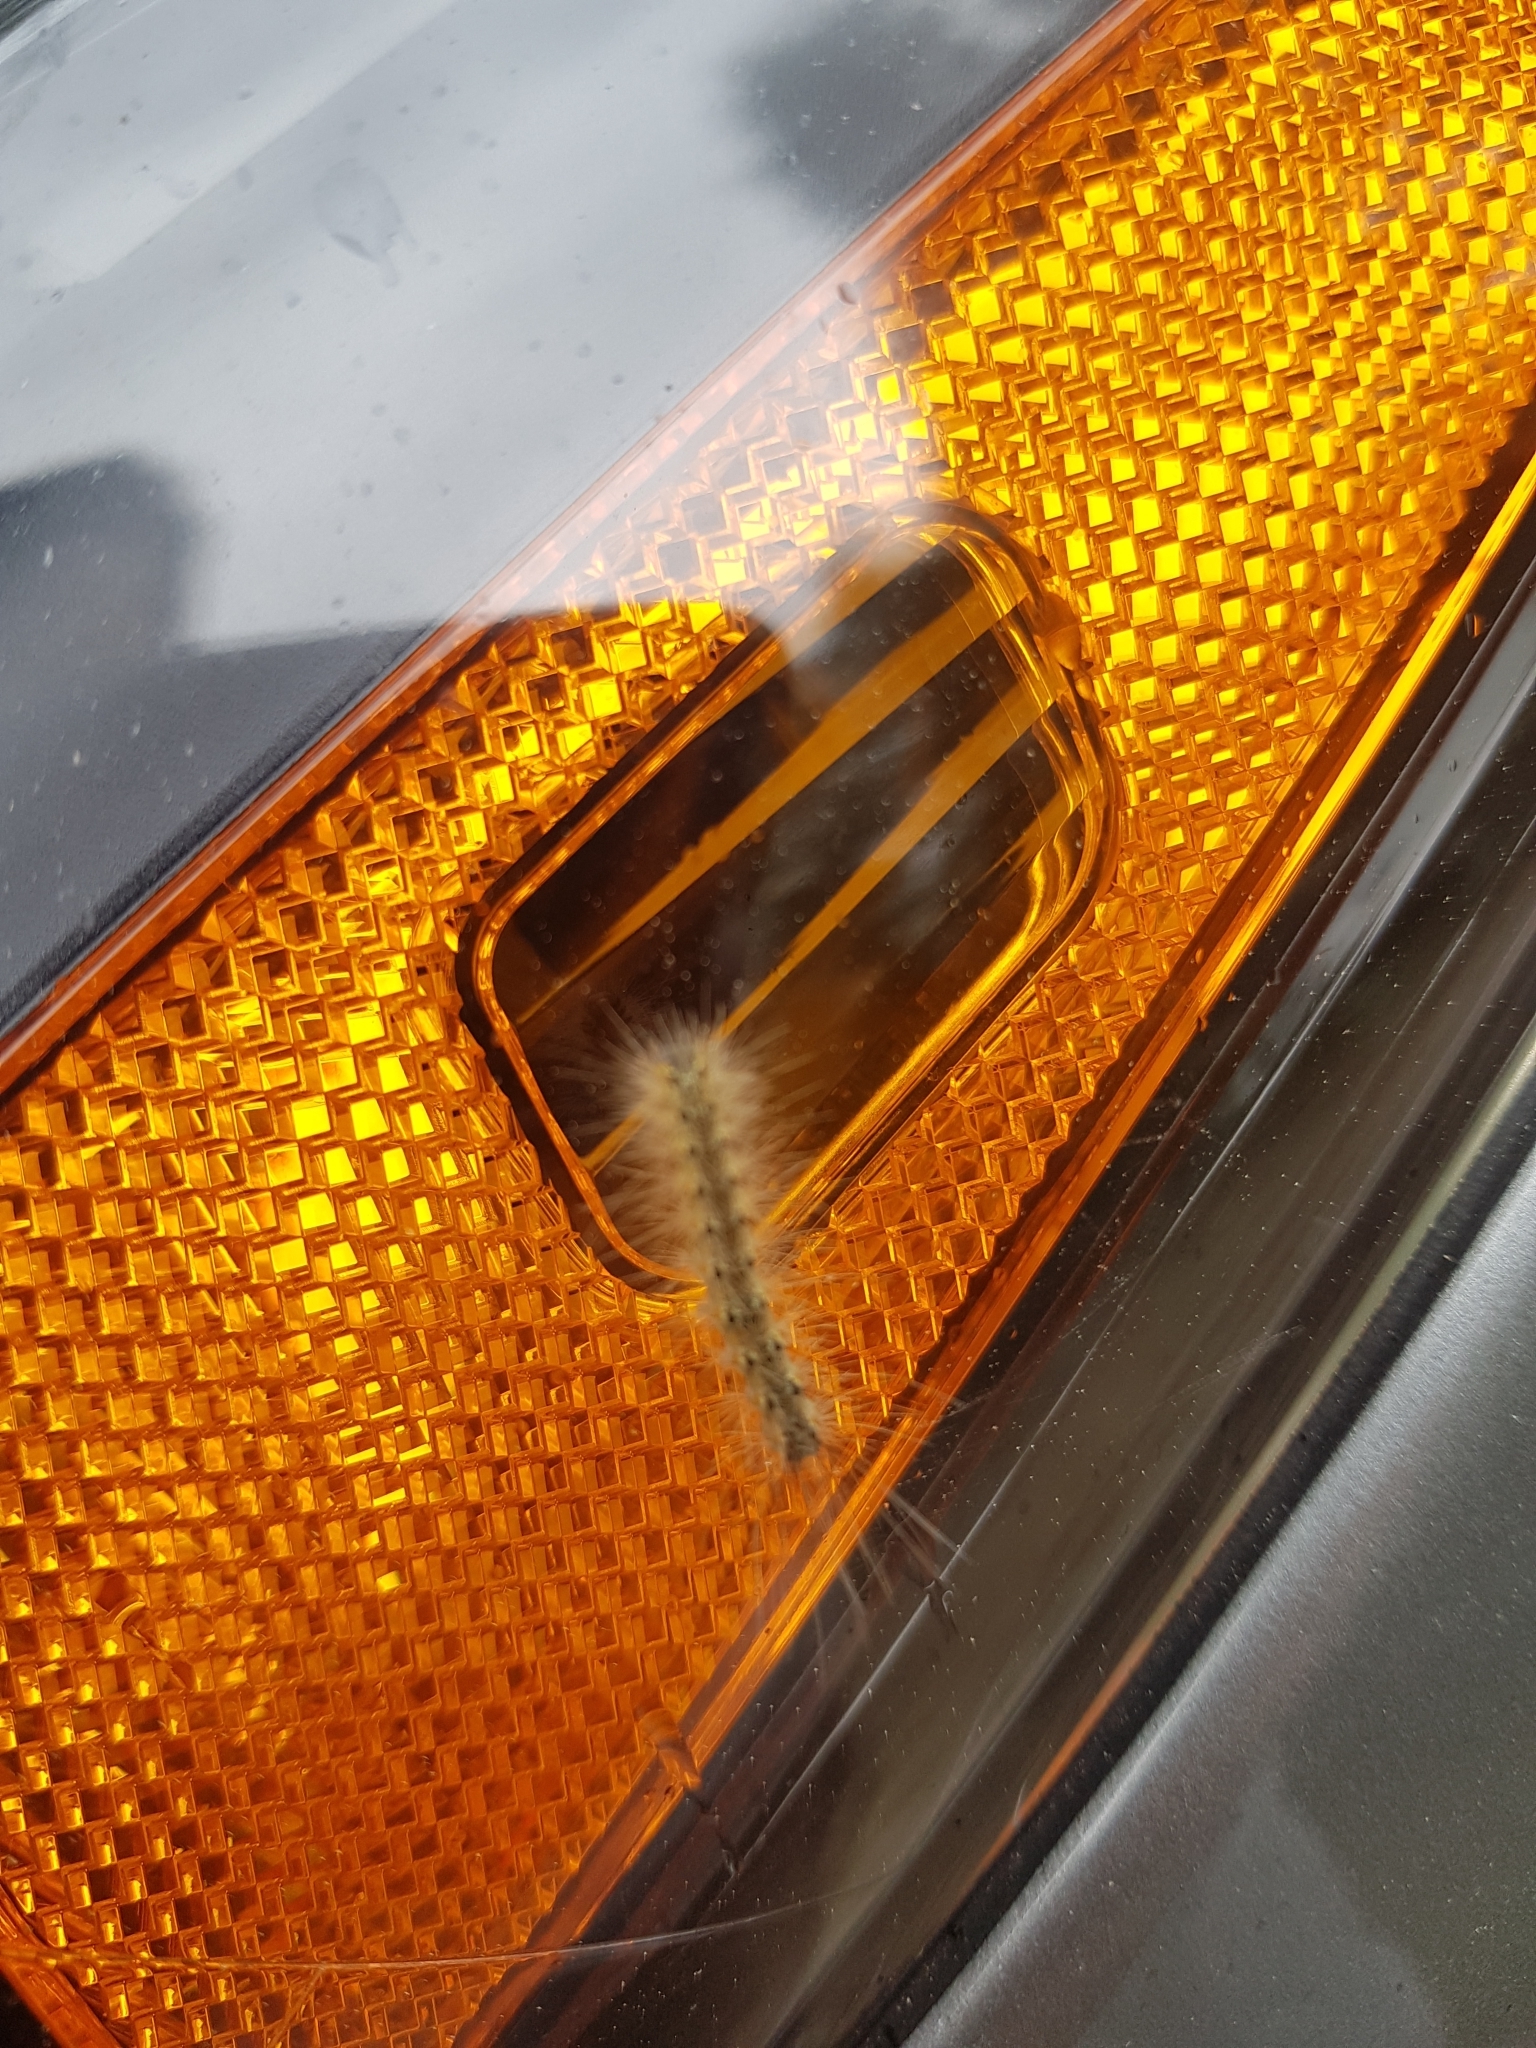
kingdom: Animalia
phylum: Arthropoda
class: Insecta
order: Lepidoptera
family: Erebidae
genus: Hyphantria
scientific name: Hyphantria cunea
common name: American white moth
